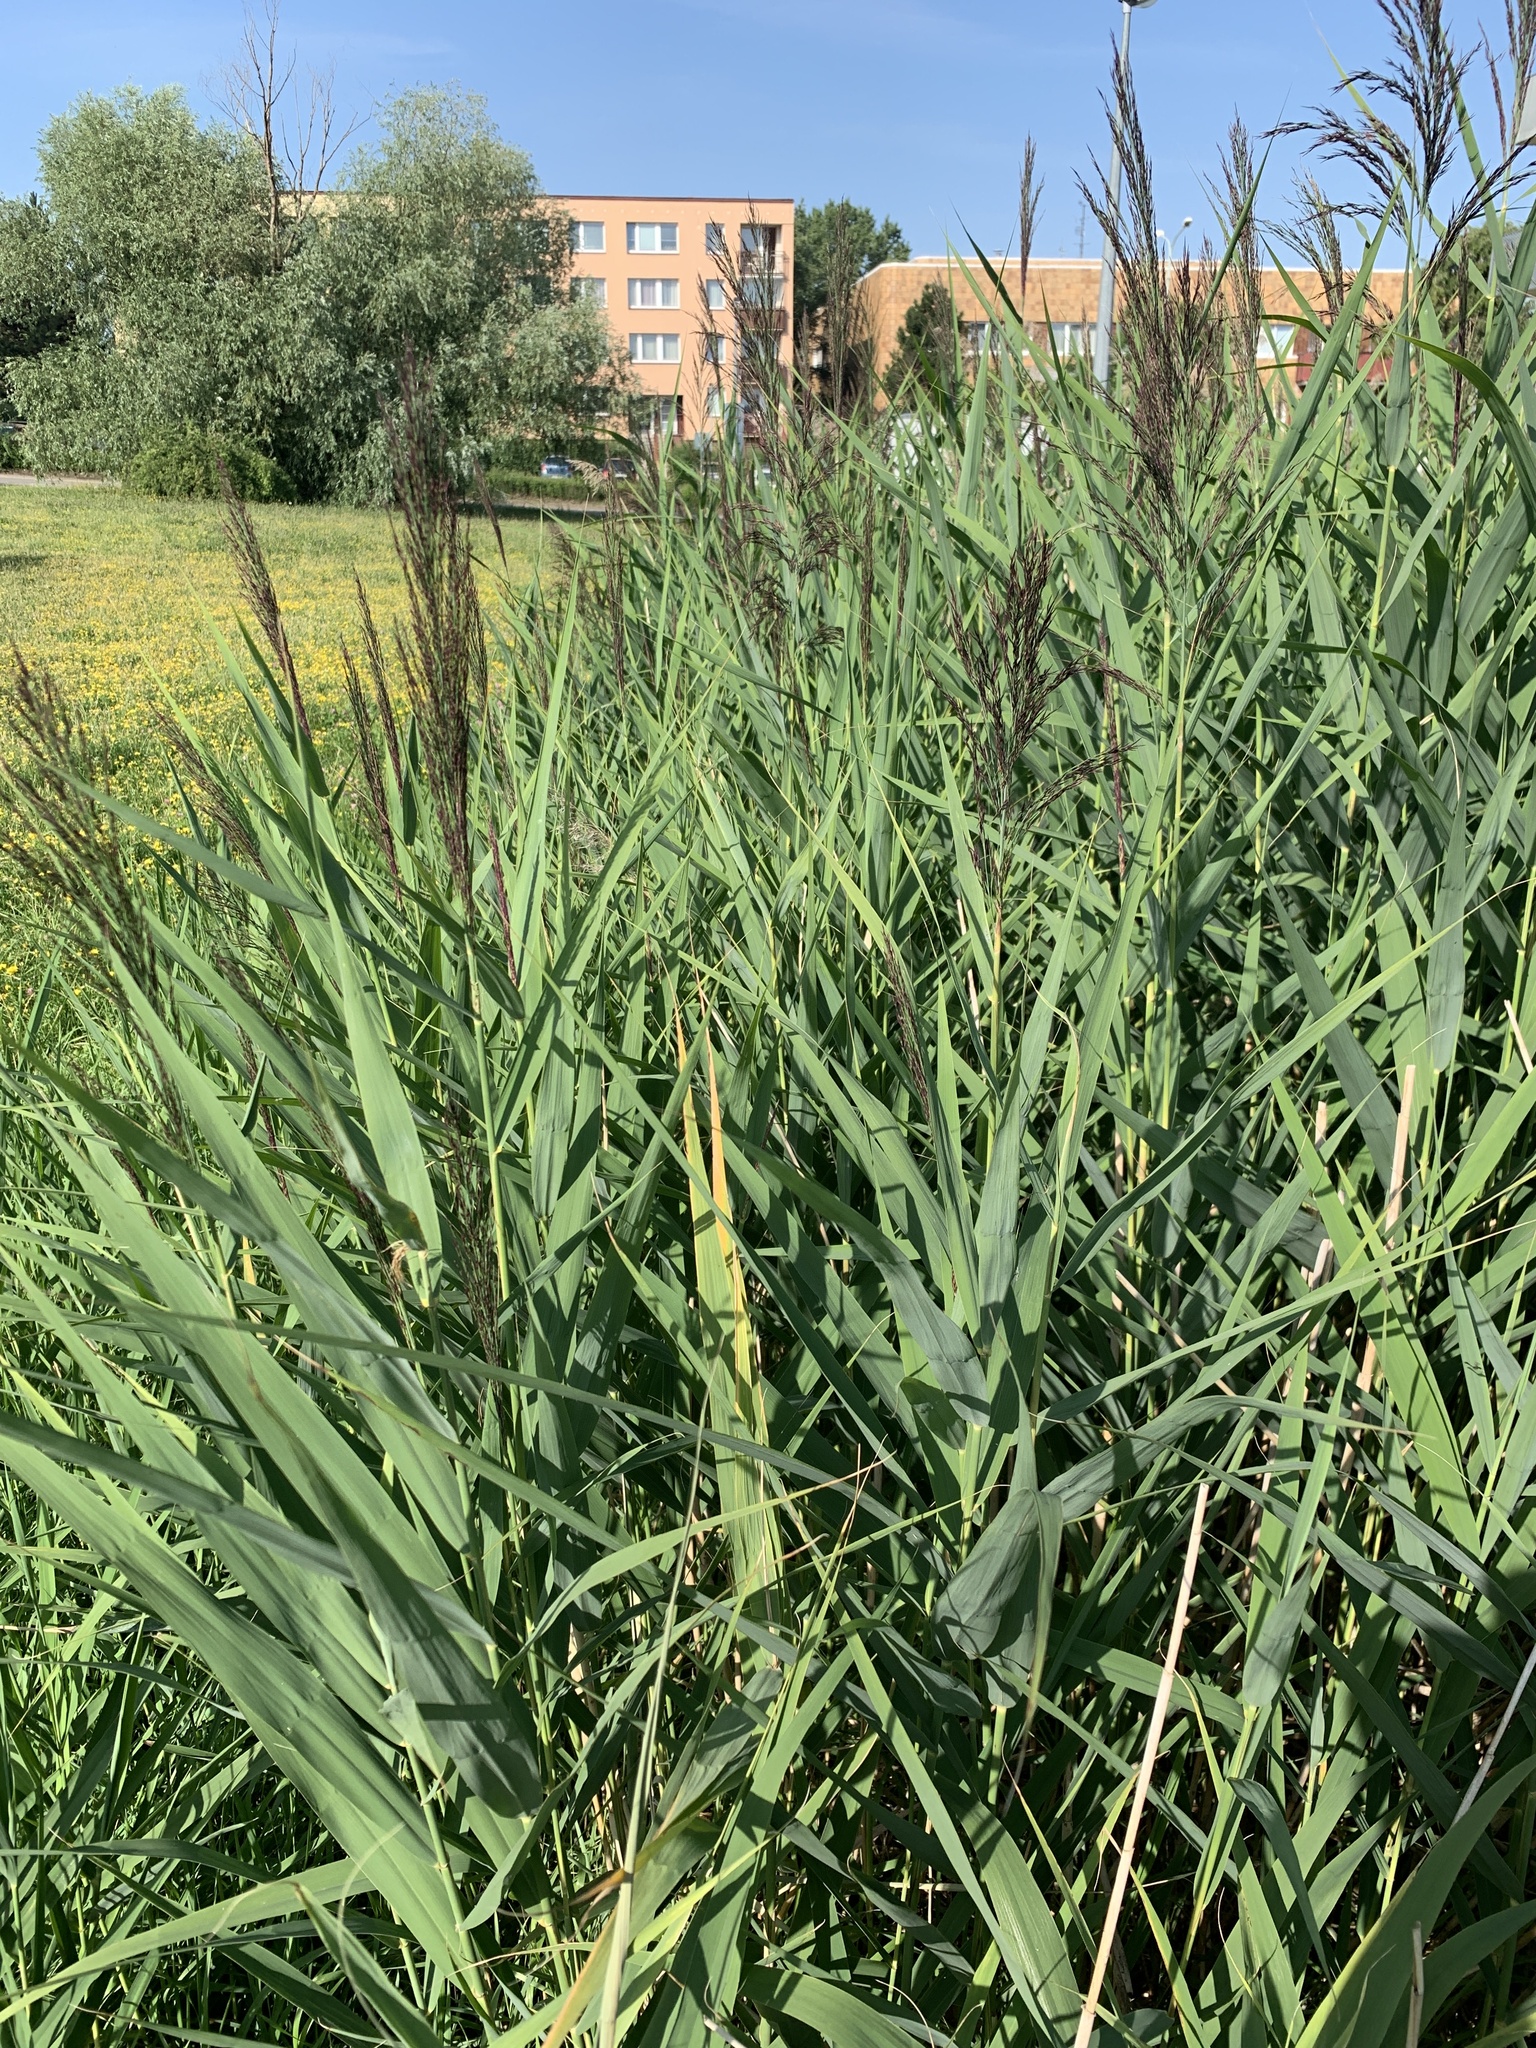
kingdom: Plantae
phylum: Tracheophyta
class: Liliopsida
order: Poales
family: Poaceae
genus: Phragmites
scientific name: Phragmites australis
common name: Common reed
